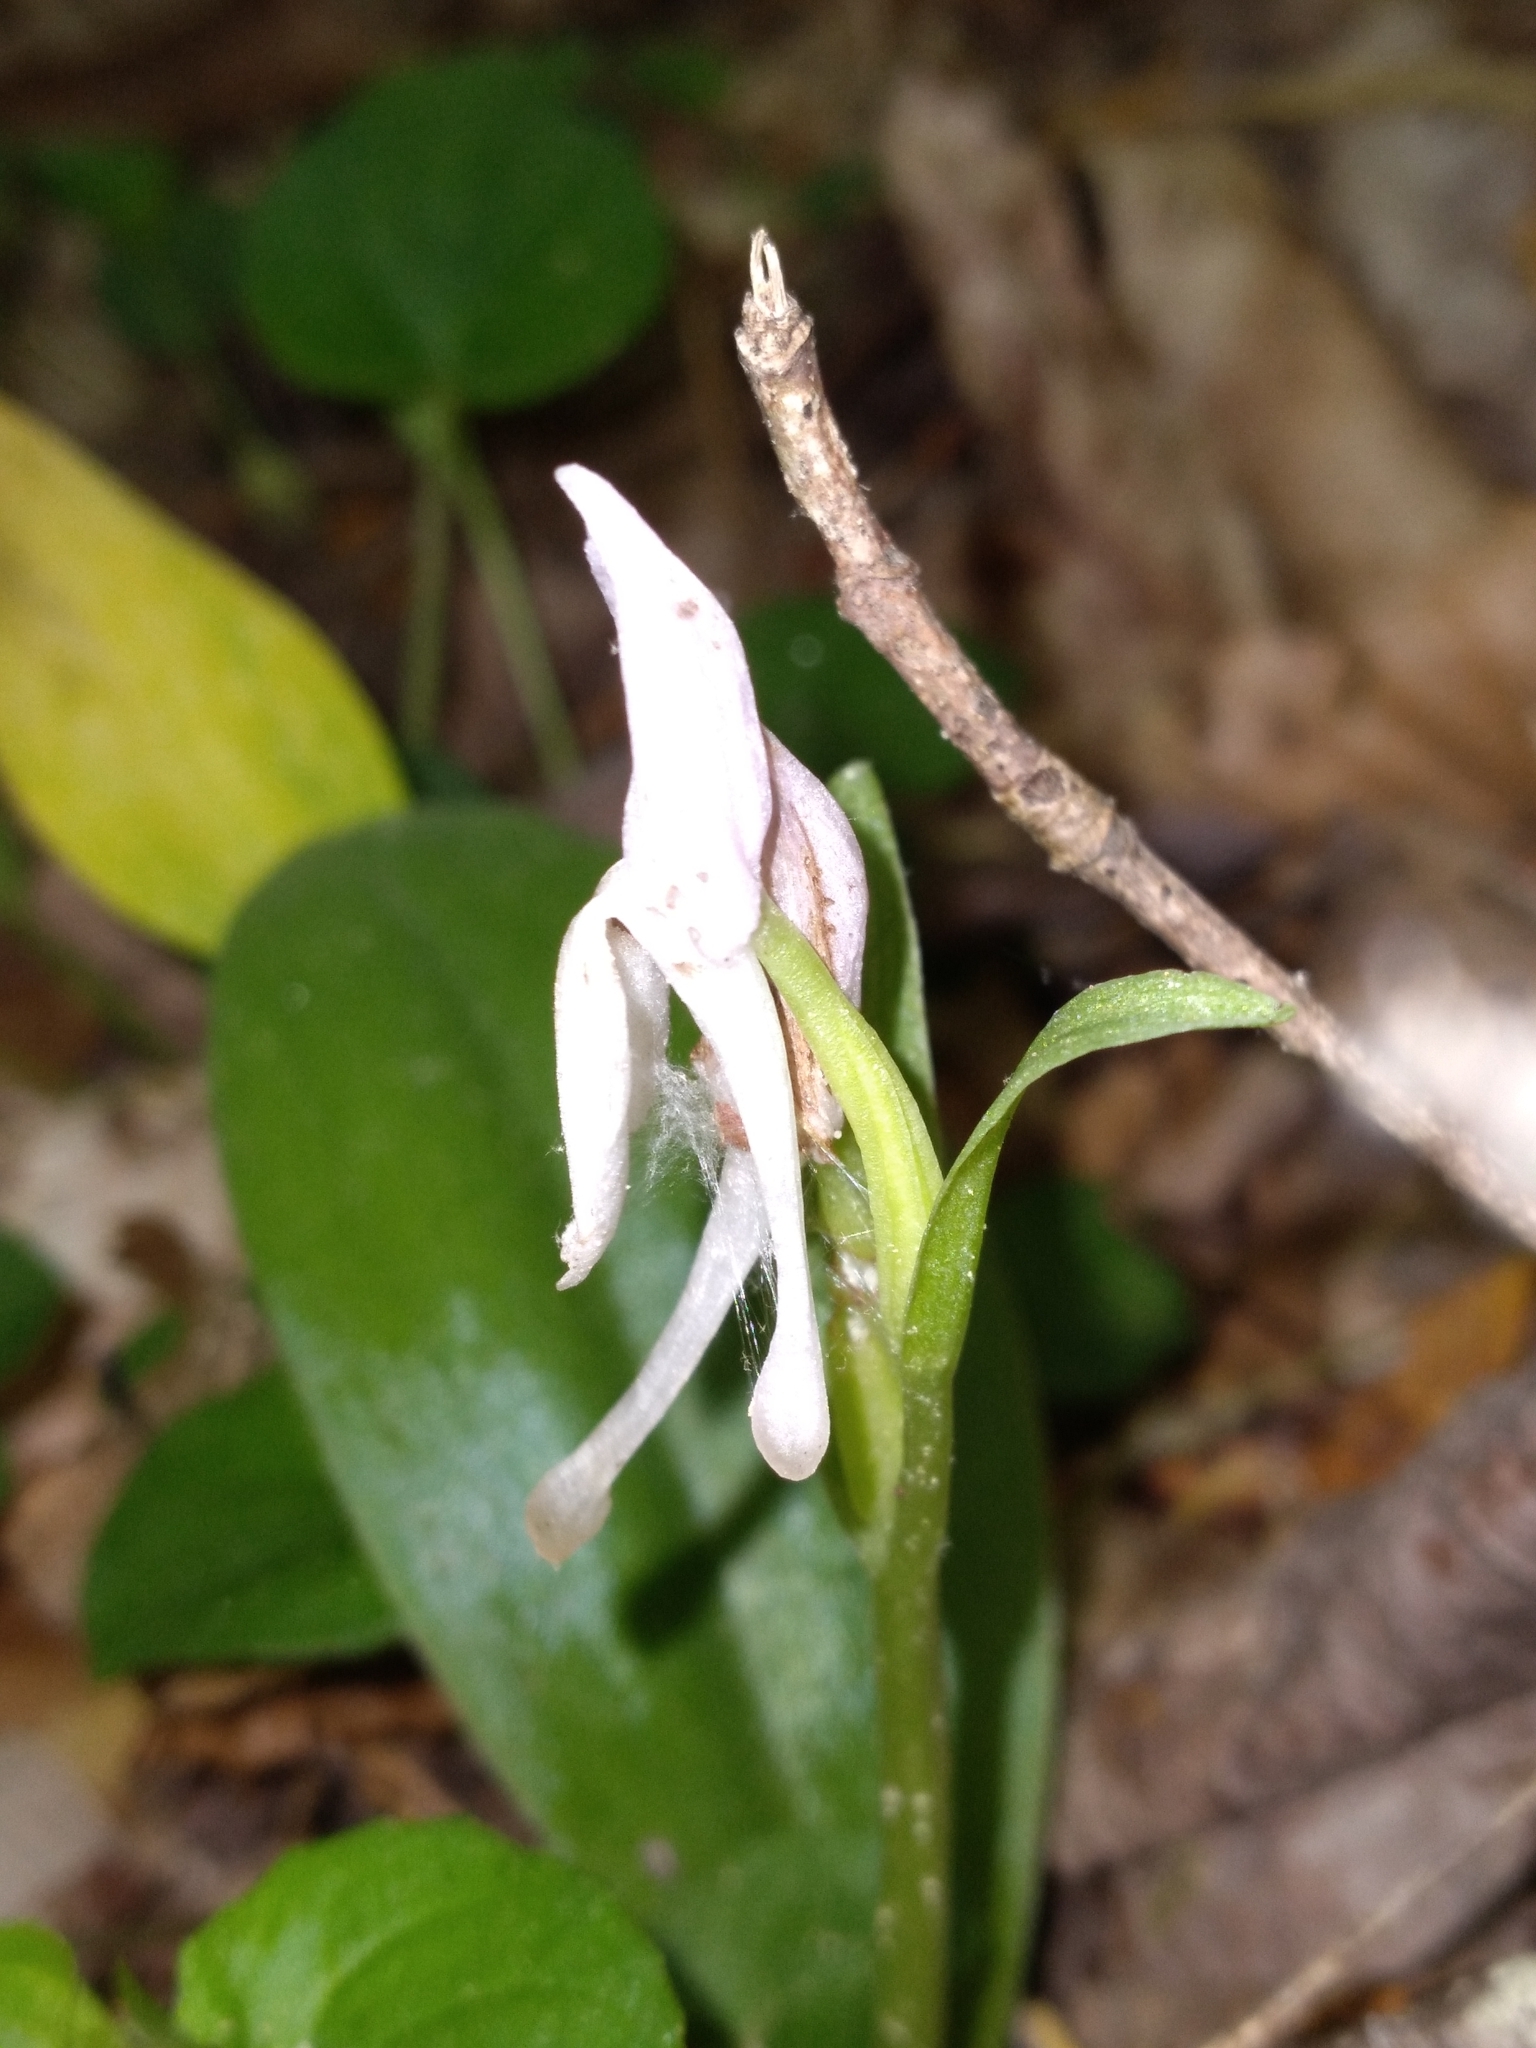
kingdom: Plantae
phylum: Tracheophyta
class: Liliopsida
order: Asparagales
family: Orchidaceae
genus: Galearis
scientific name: Galearis spectabilis
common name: Purple-hooded orchis
